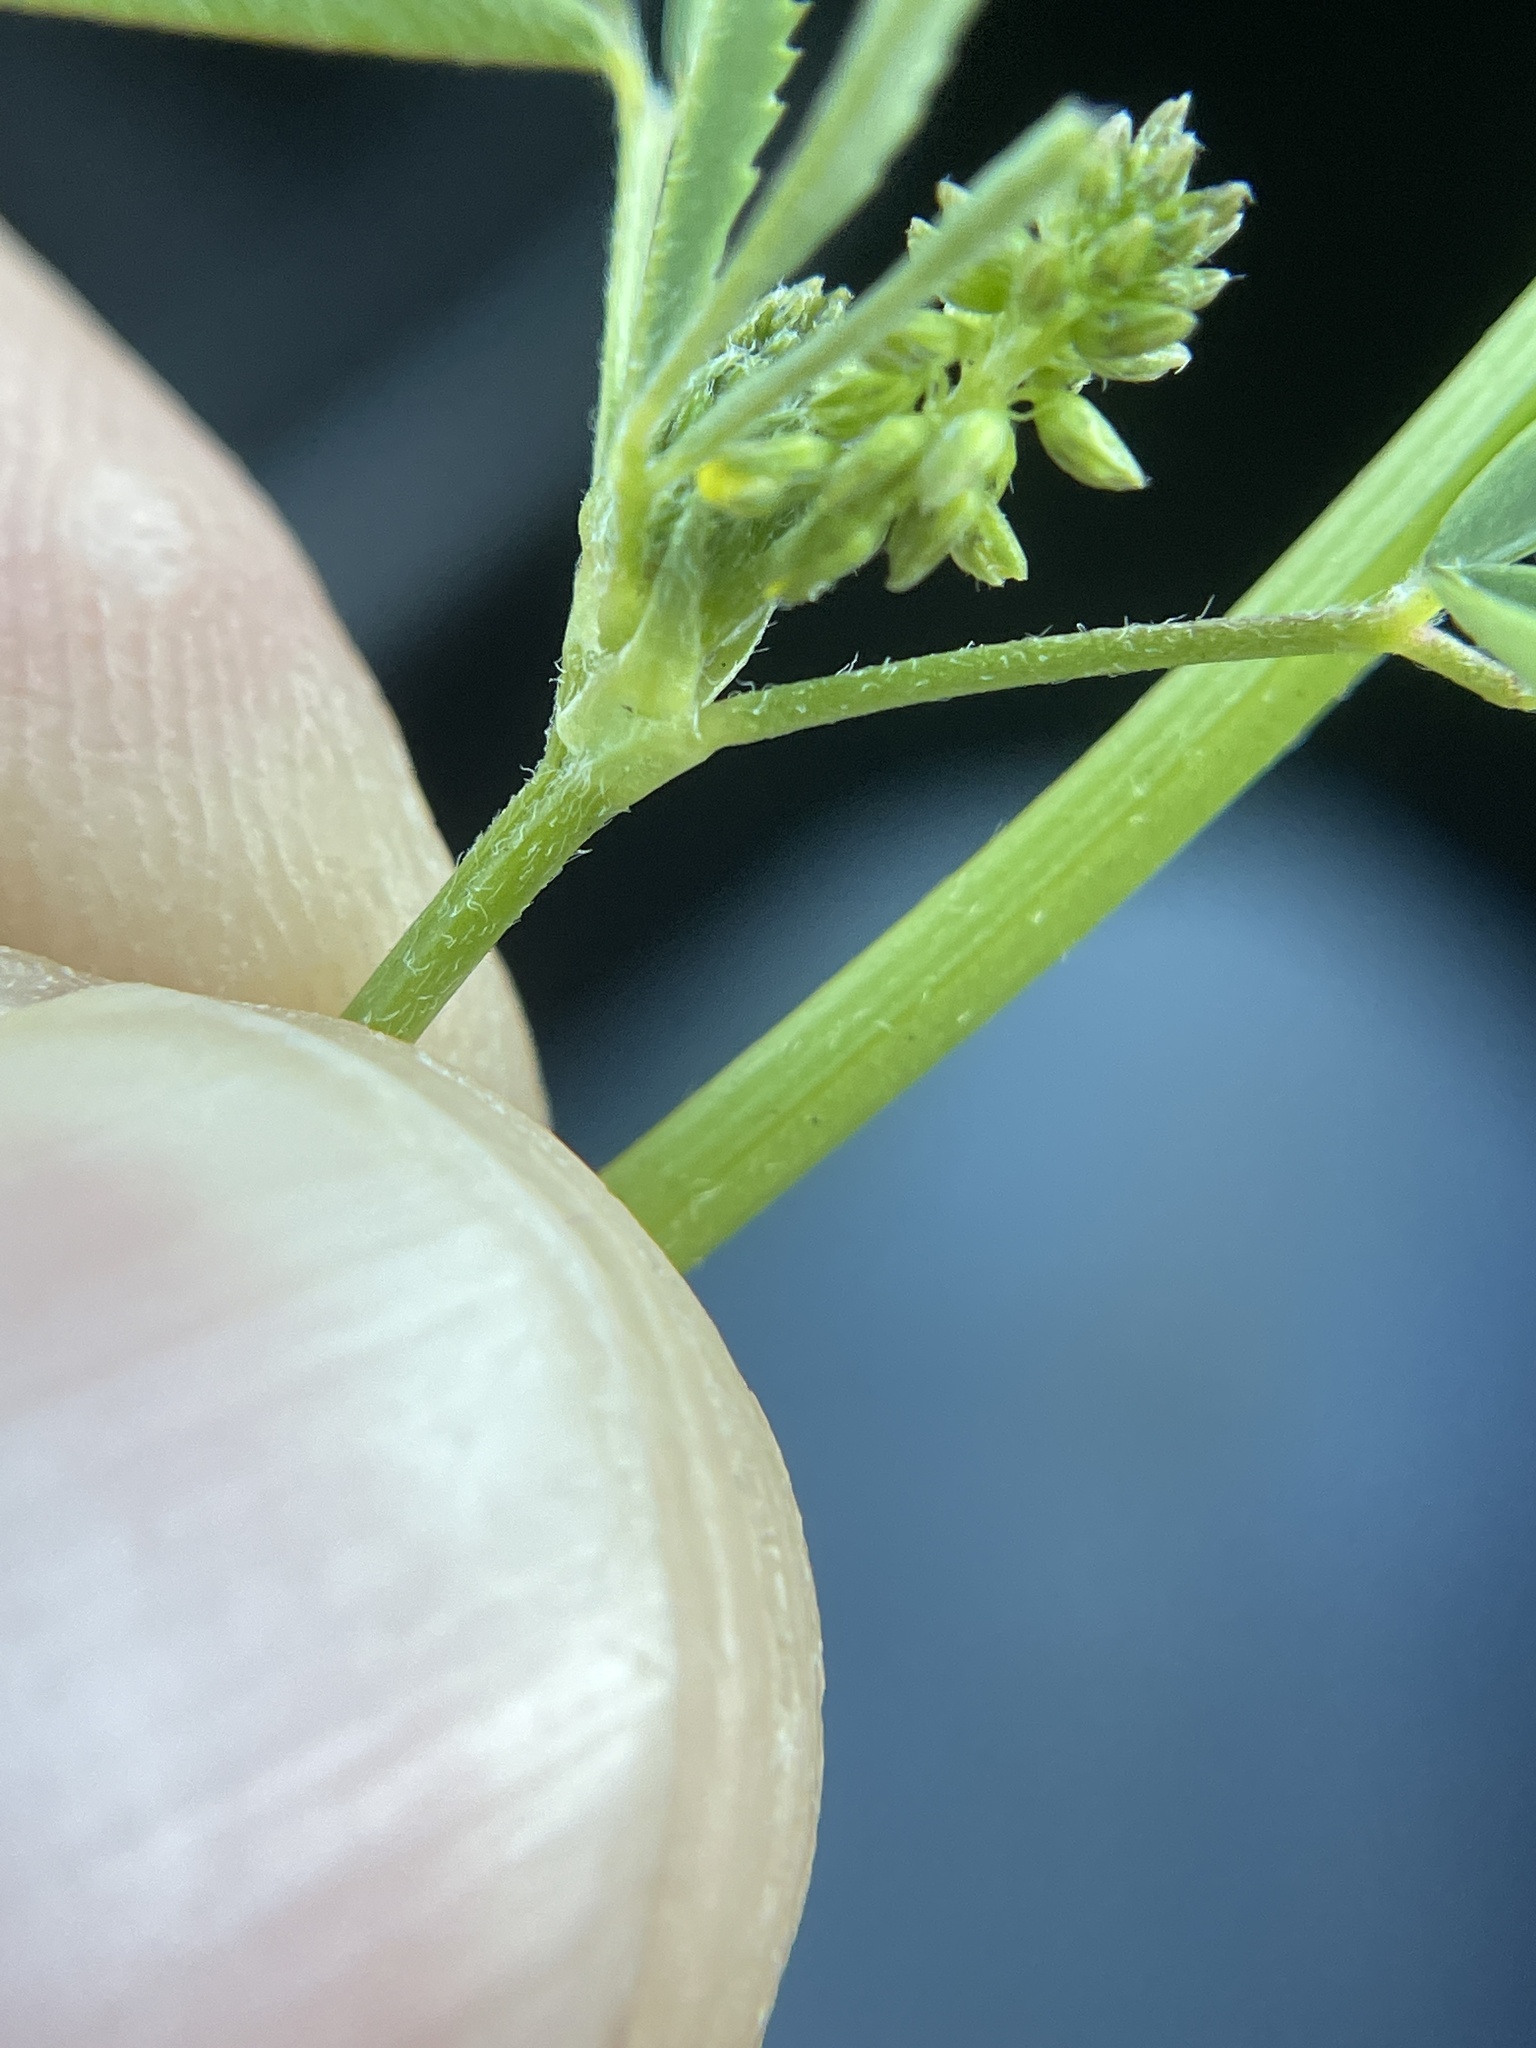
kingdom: Plantae
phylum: Tracheophyta
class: Magnoliopsida
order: Fabales
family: Fabaceae
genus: Melilotus
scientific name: Melilotus indicus
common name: Small melilot
